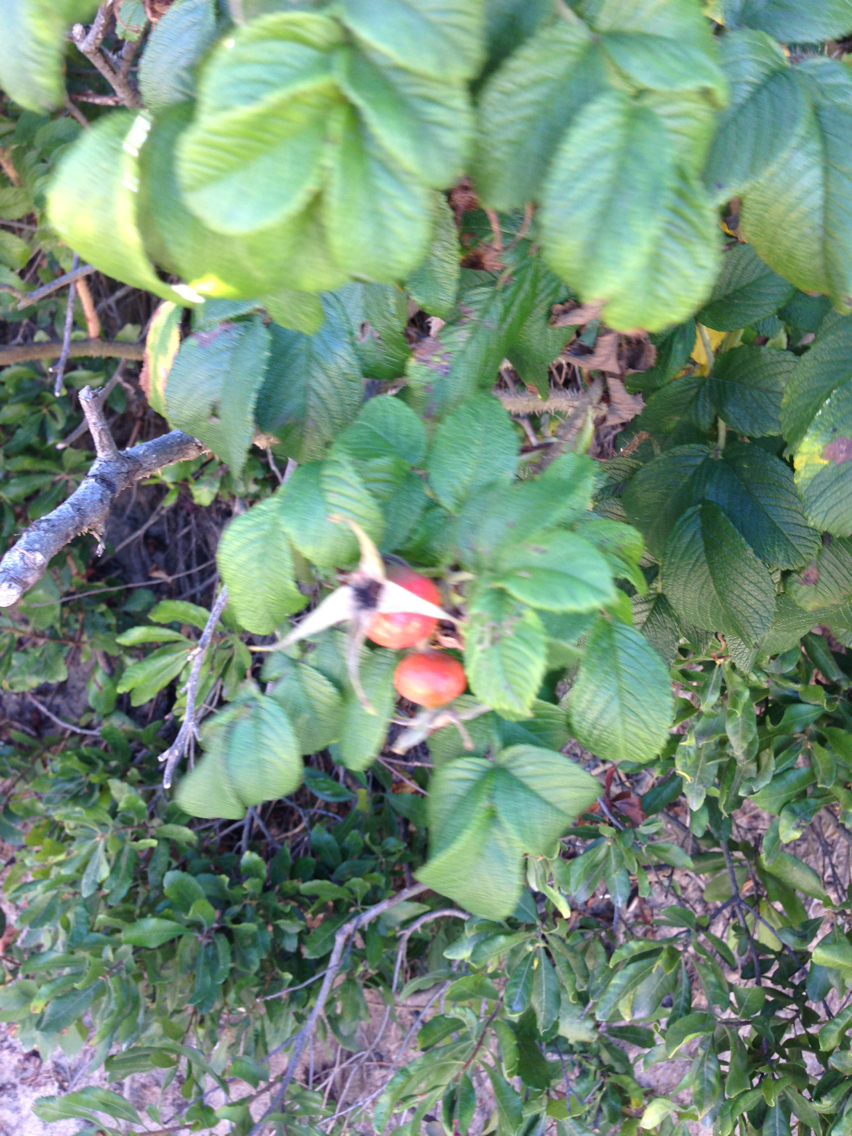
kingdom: Plantae
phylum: Tracheophyta
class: Magnoliopsida
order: Rosales
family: Rosaceae
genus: Rosa
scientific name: Rosa rugosa
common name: Japanese rose
